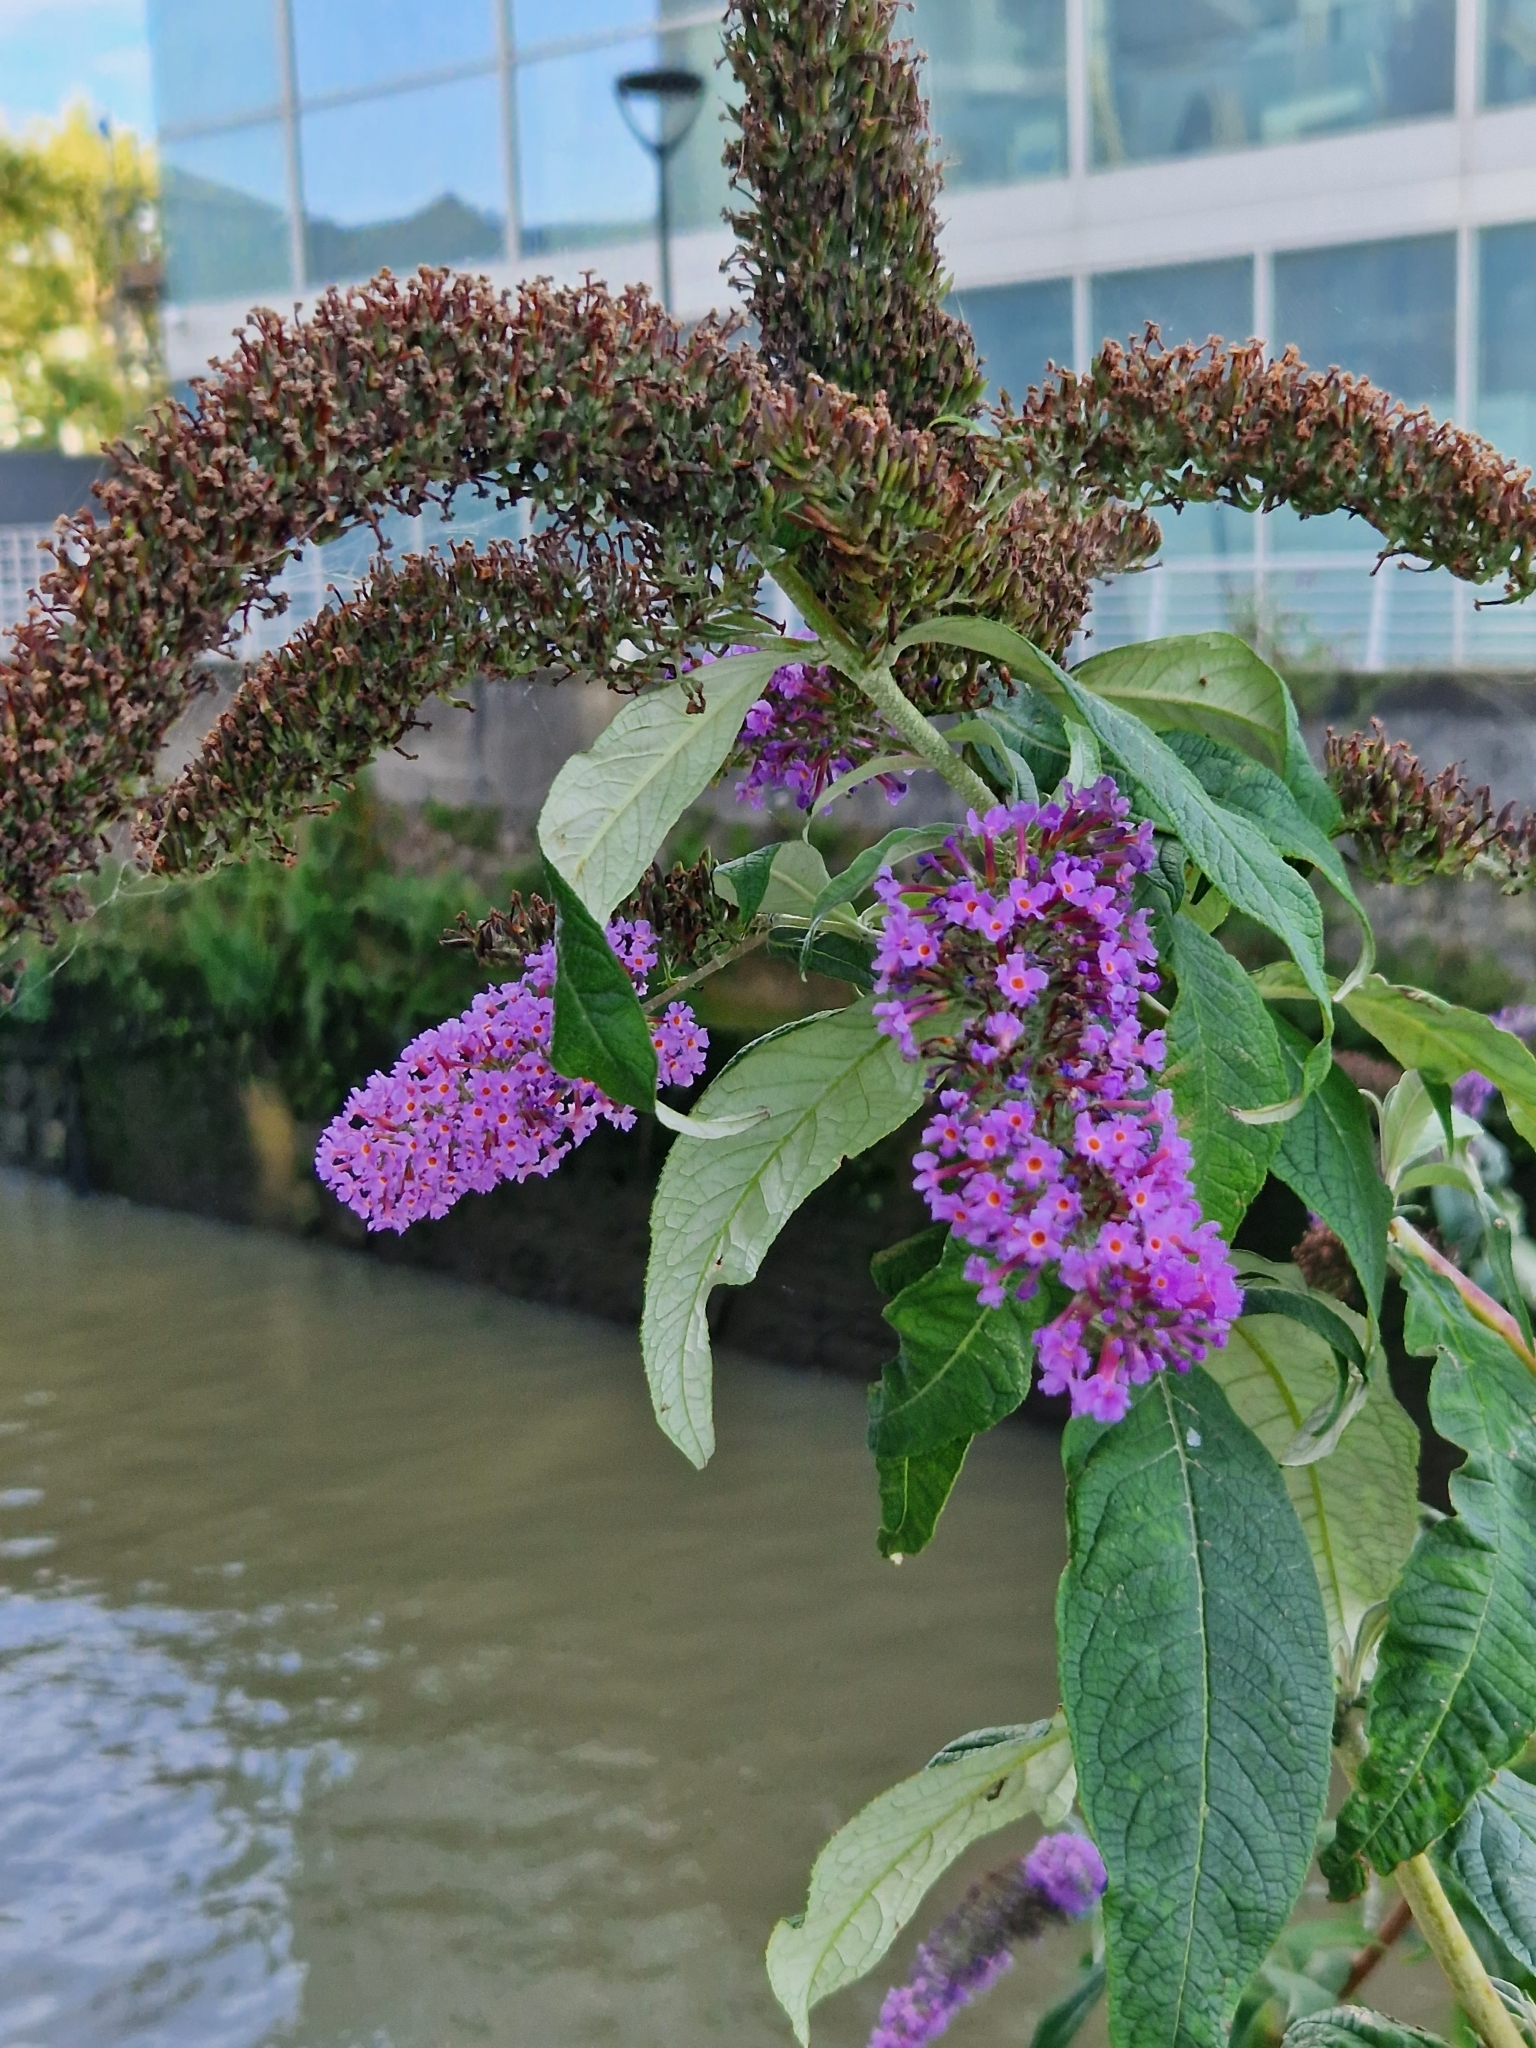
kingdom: Plantae
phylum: Tracheophyta
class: Magnoliopsida
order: Lamiales
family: Scrophulariaceae
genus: Buddleja
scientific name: Buddleja davidii
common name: Butterfly-bush
